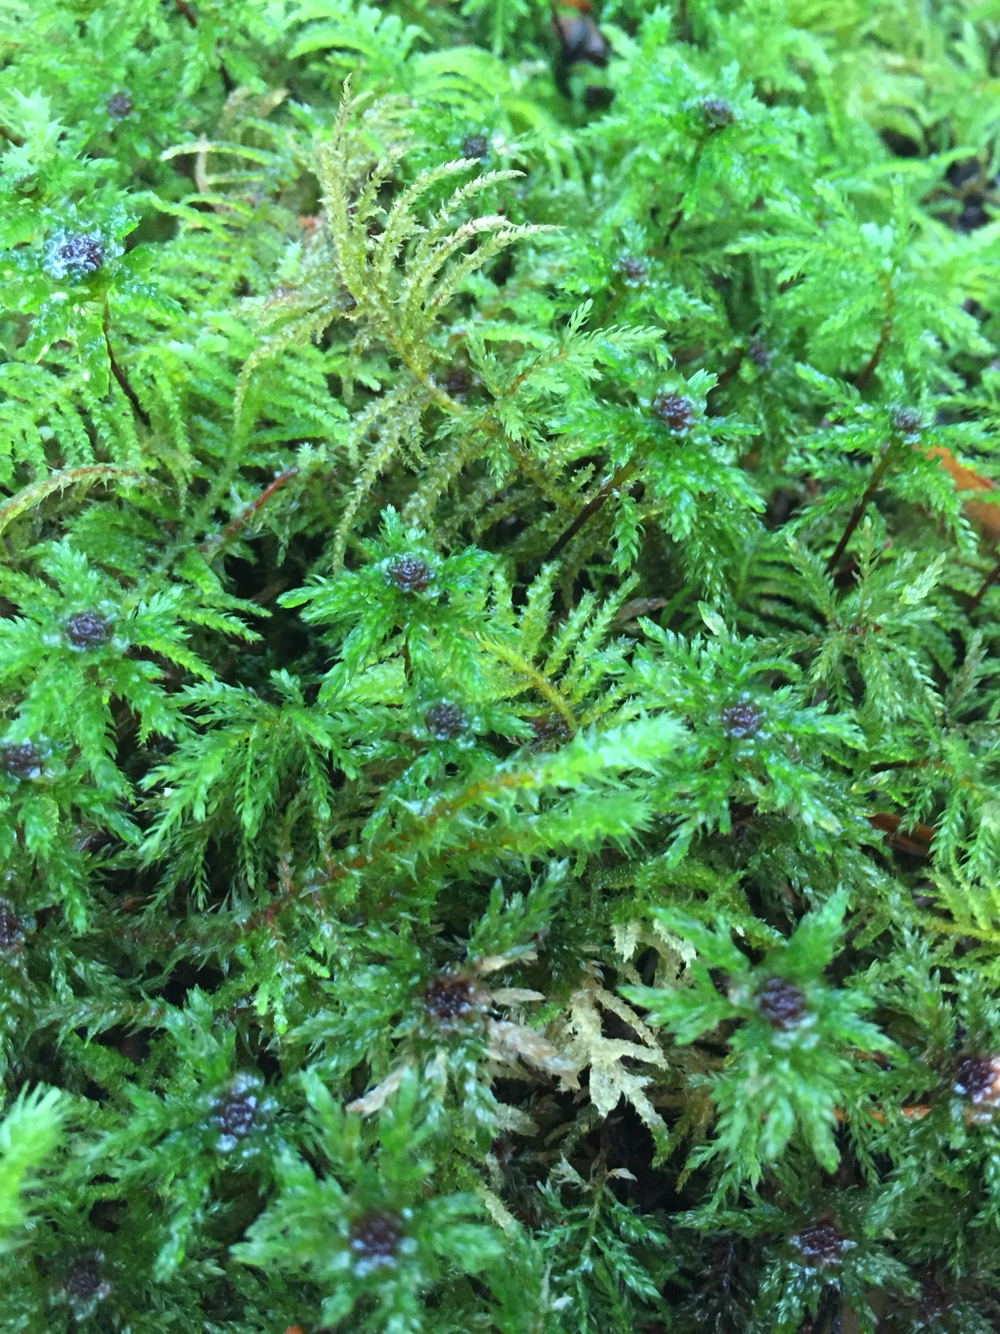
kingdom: Plantae
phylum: Bryophyta
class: Bryopsida
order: Bryales
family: Mniaceae
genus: Leucolepis
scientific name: Leucolepis acanthoneura
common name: Leucolepis umbrella moss
